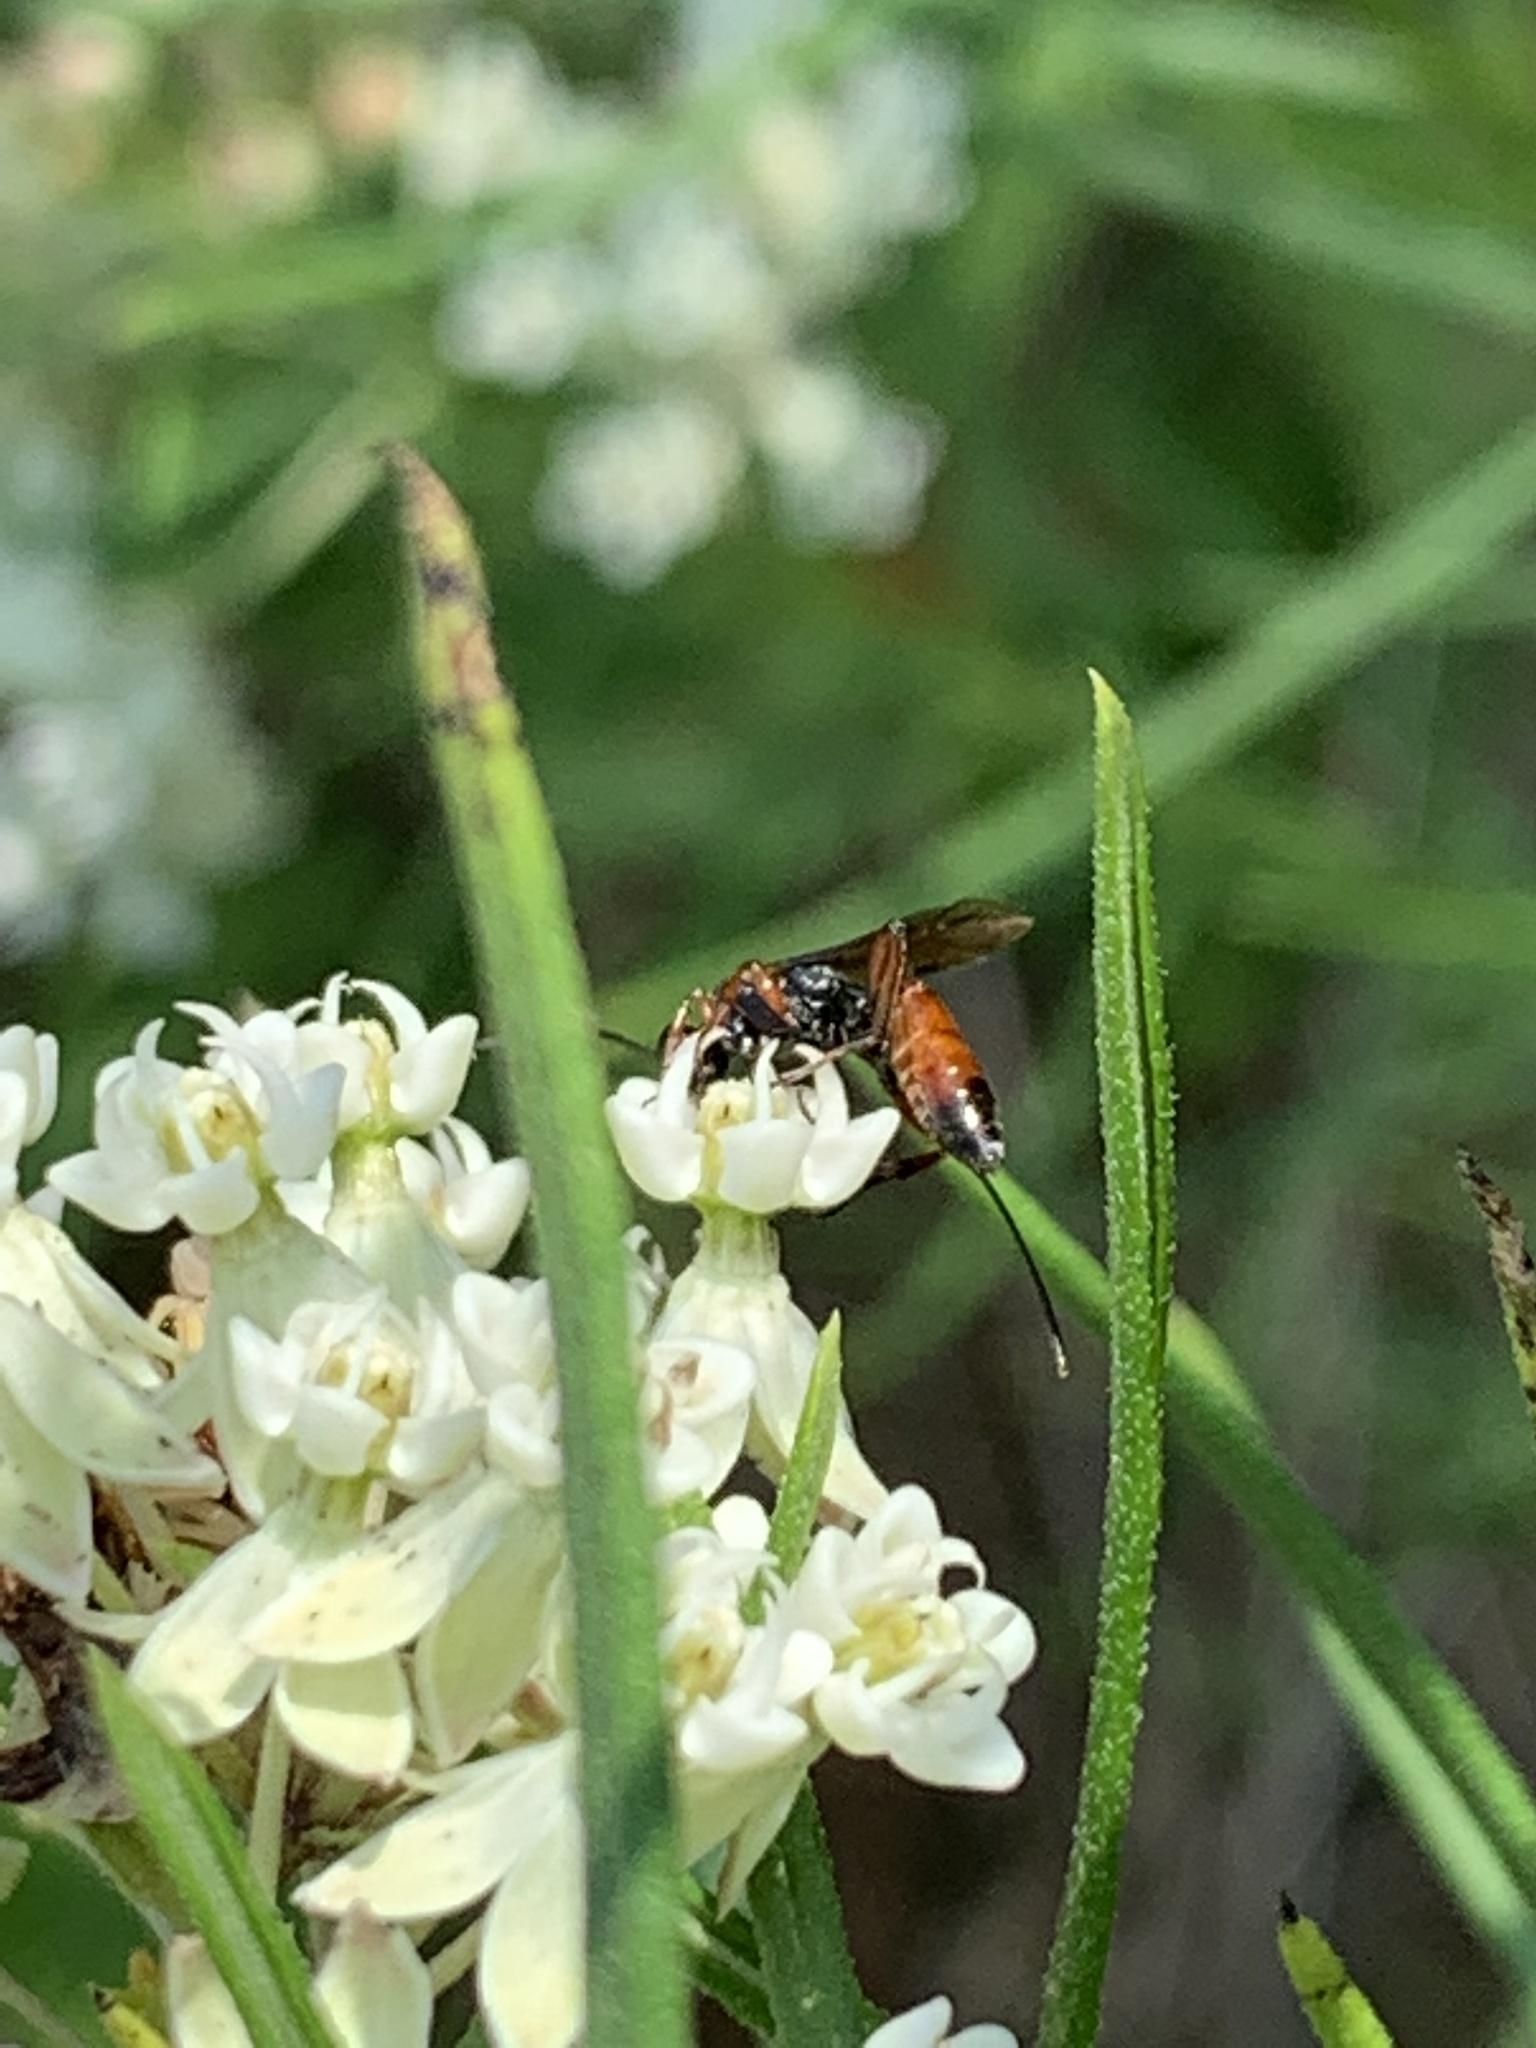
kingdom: Animalia
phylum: Arthropoda
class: Insecta
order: Hymenoptera
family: Ichneumonidae
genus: Aritranis
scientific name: Aritranis director
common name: Ichneumonid wasp
